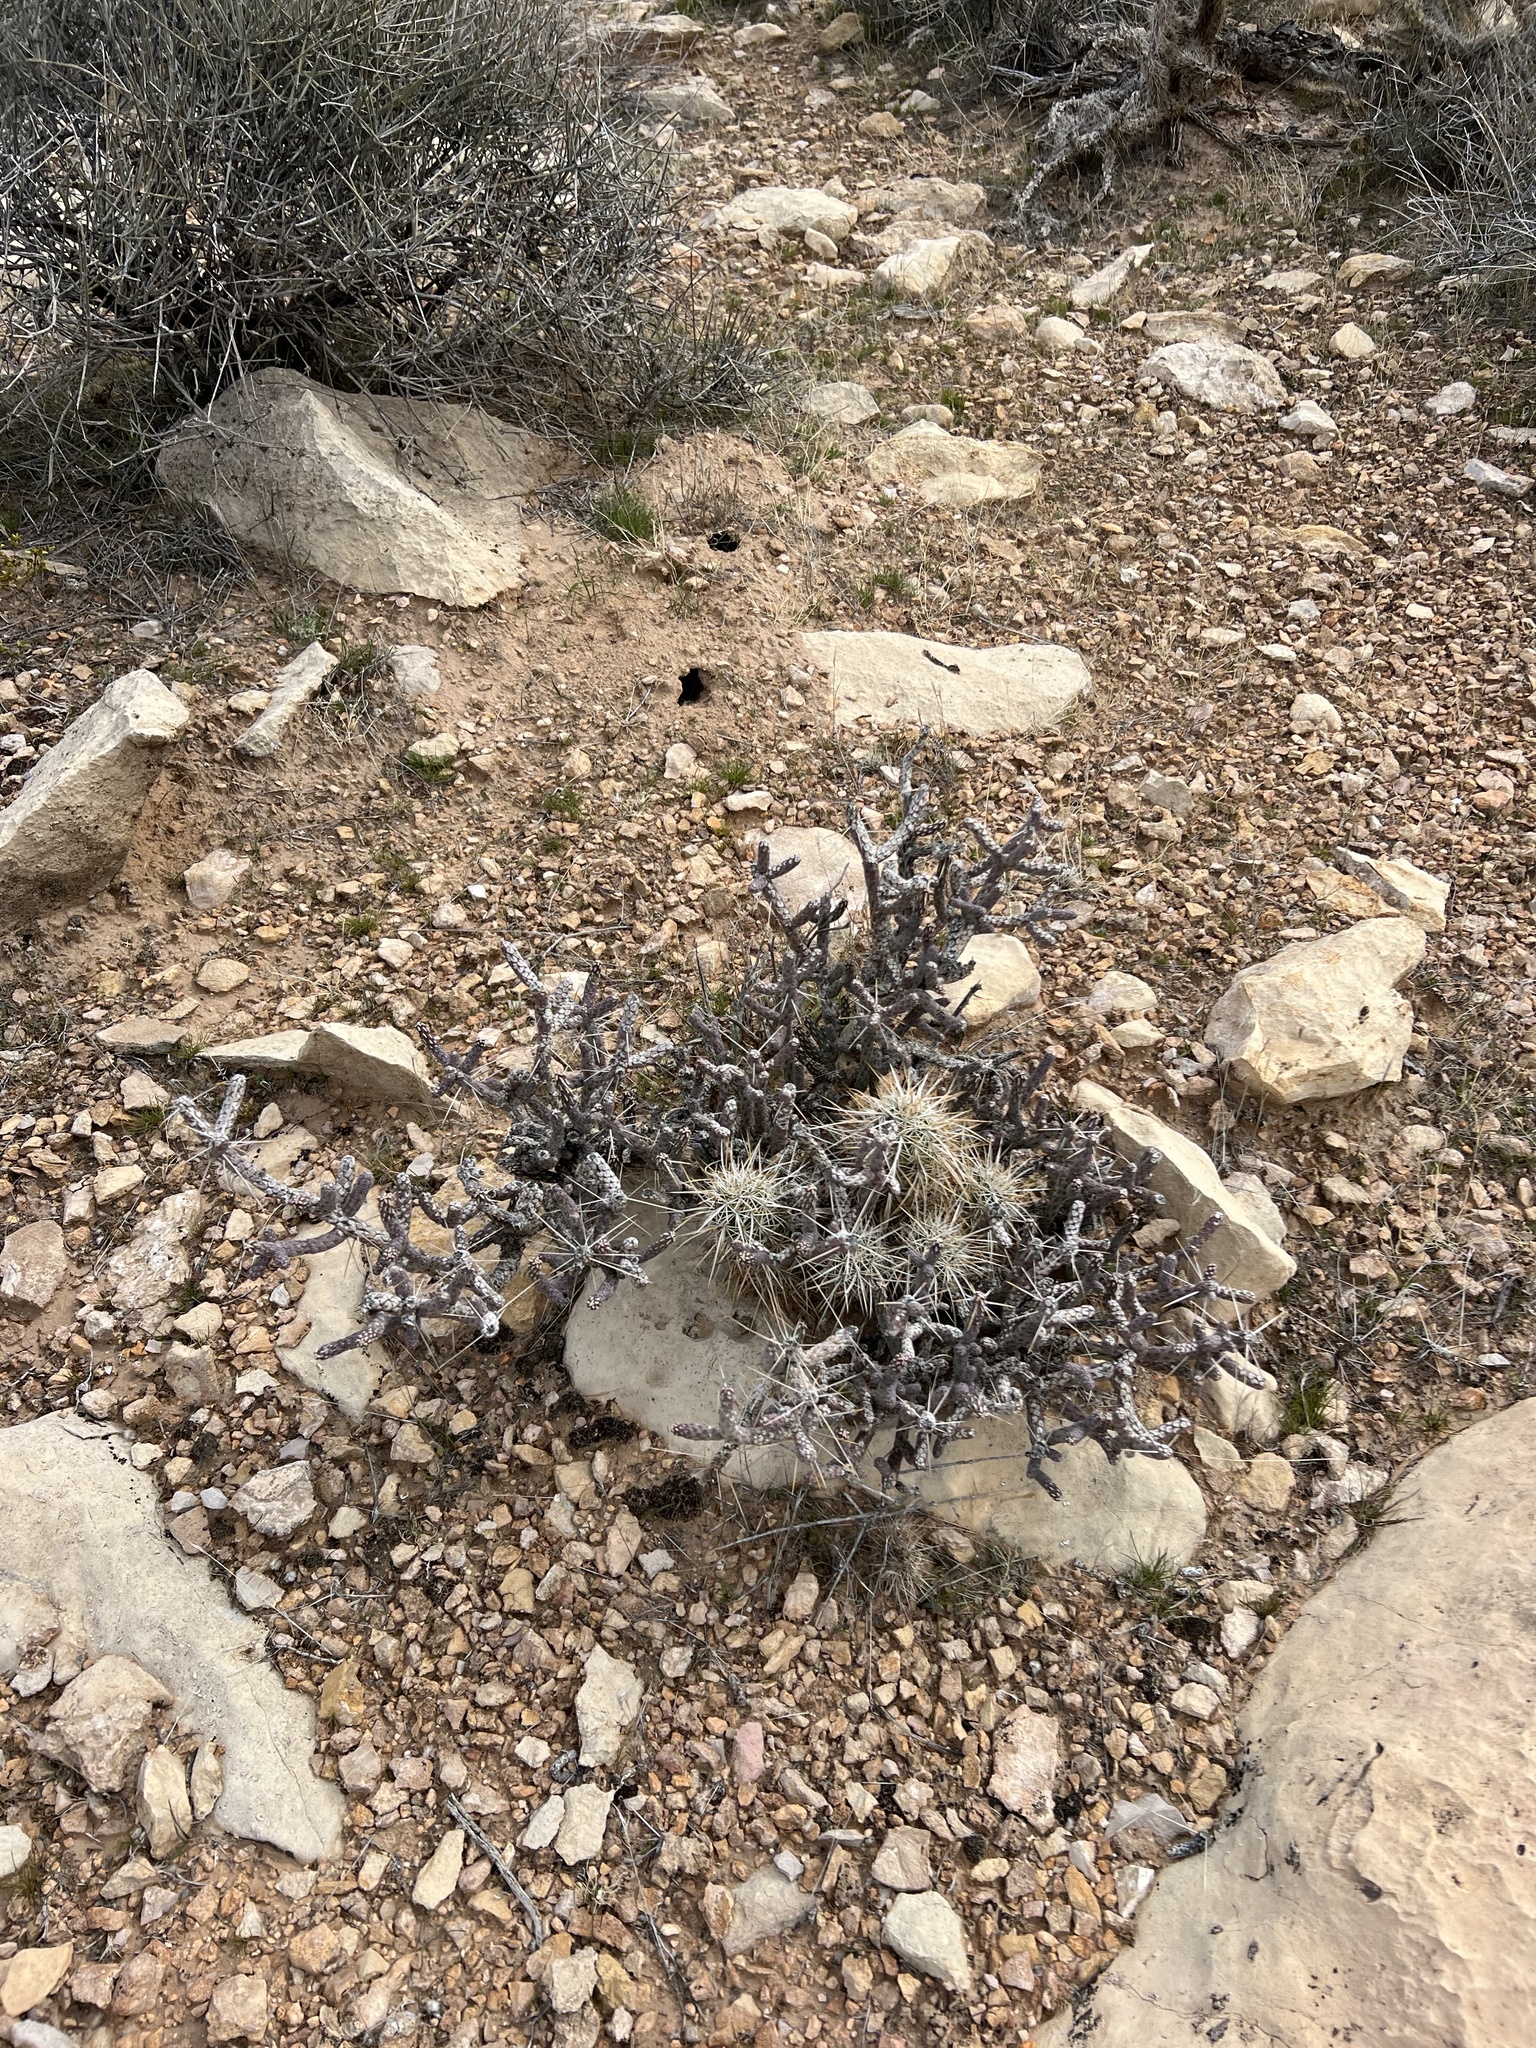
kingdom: Plantae
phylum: Tracheophyta
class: Magnoliopsida
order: Caryophyllales
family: Cactaceae
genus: Cylindropuntia
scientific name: Cylindropuntia ramosissima
